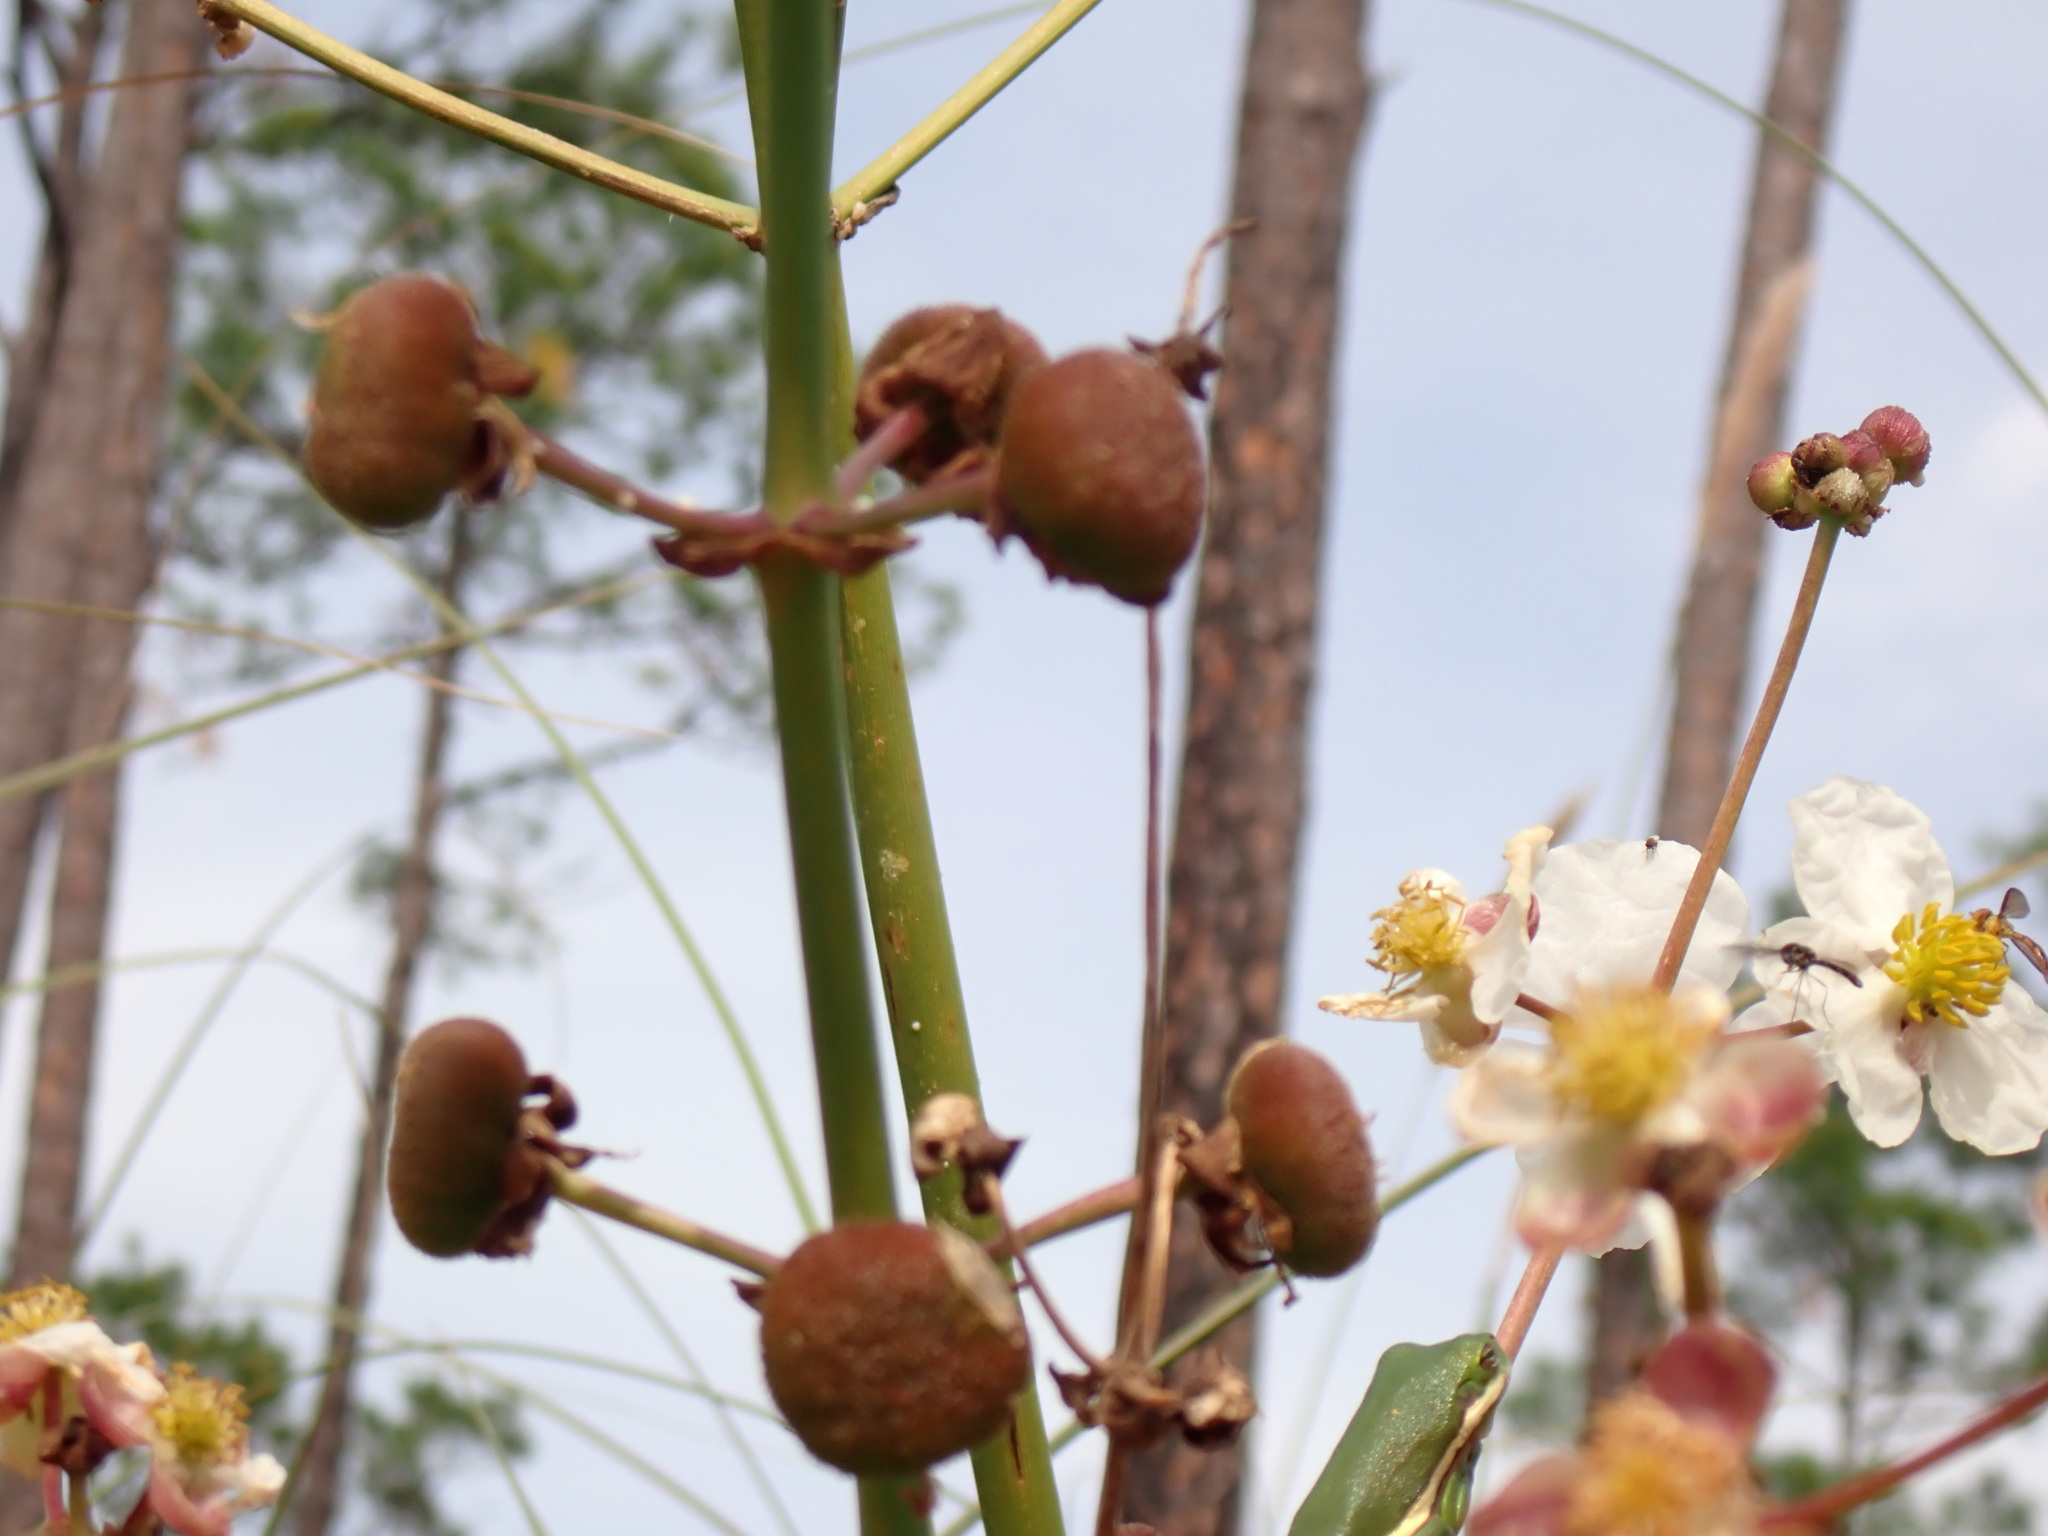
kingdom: Animalia
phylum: Arthropoda
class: Insecta
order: Diptera
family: Syrphidae
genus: Nuntianus
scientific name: Nuntianus cubanus
